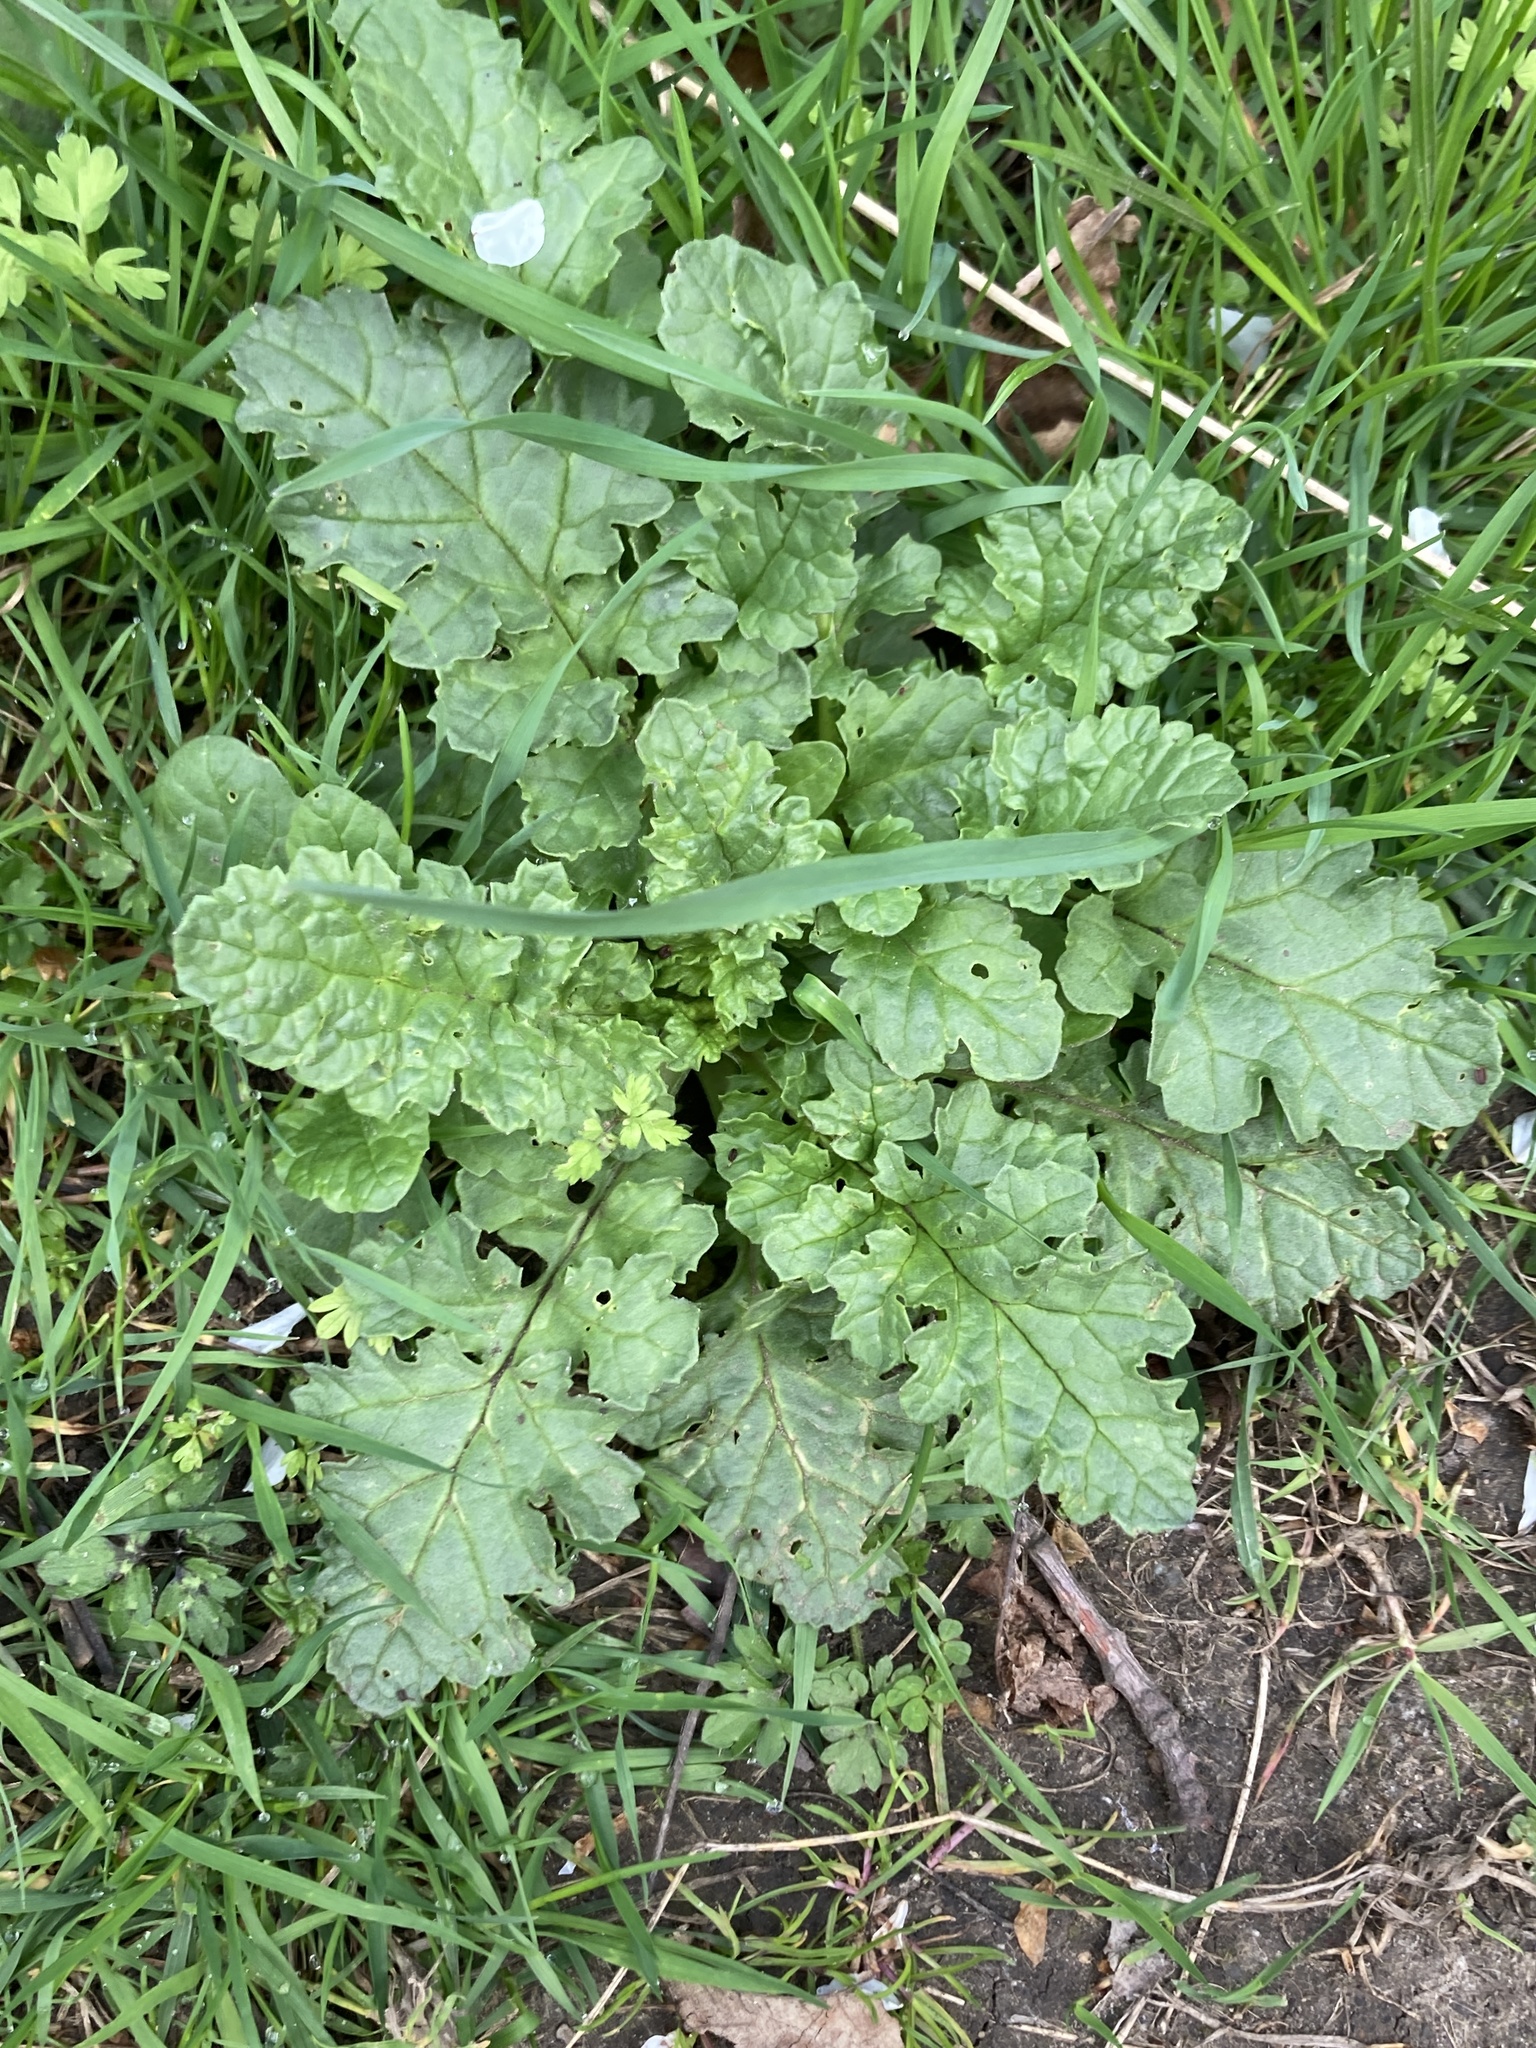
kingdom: Plantae
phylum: Tracheophyta
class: Magnoliopsida
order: Asterales
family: Asteraceae
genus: Jacobaea
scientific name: Jacobaea vulgaris
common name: Stinking willie
